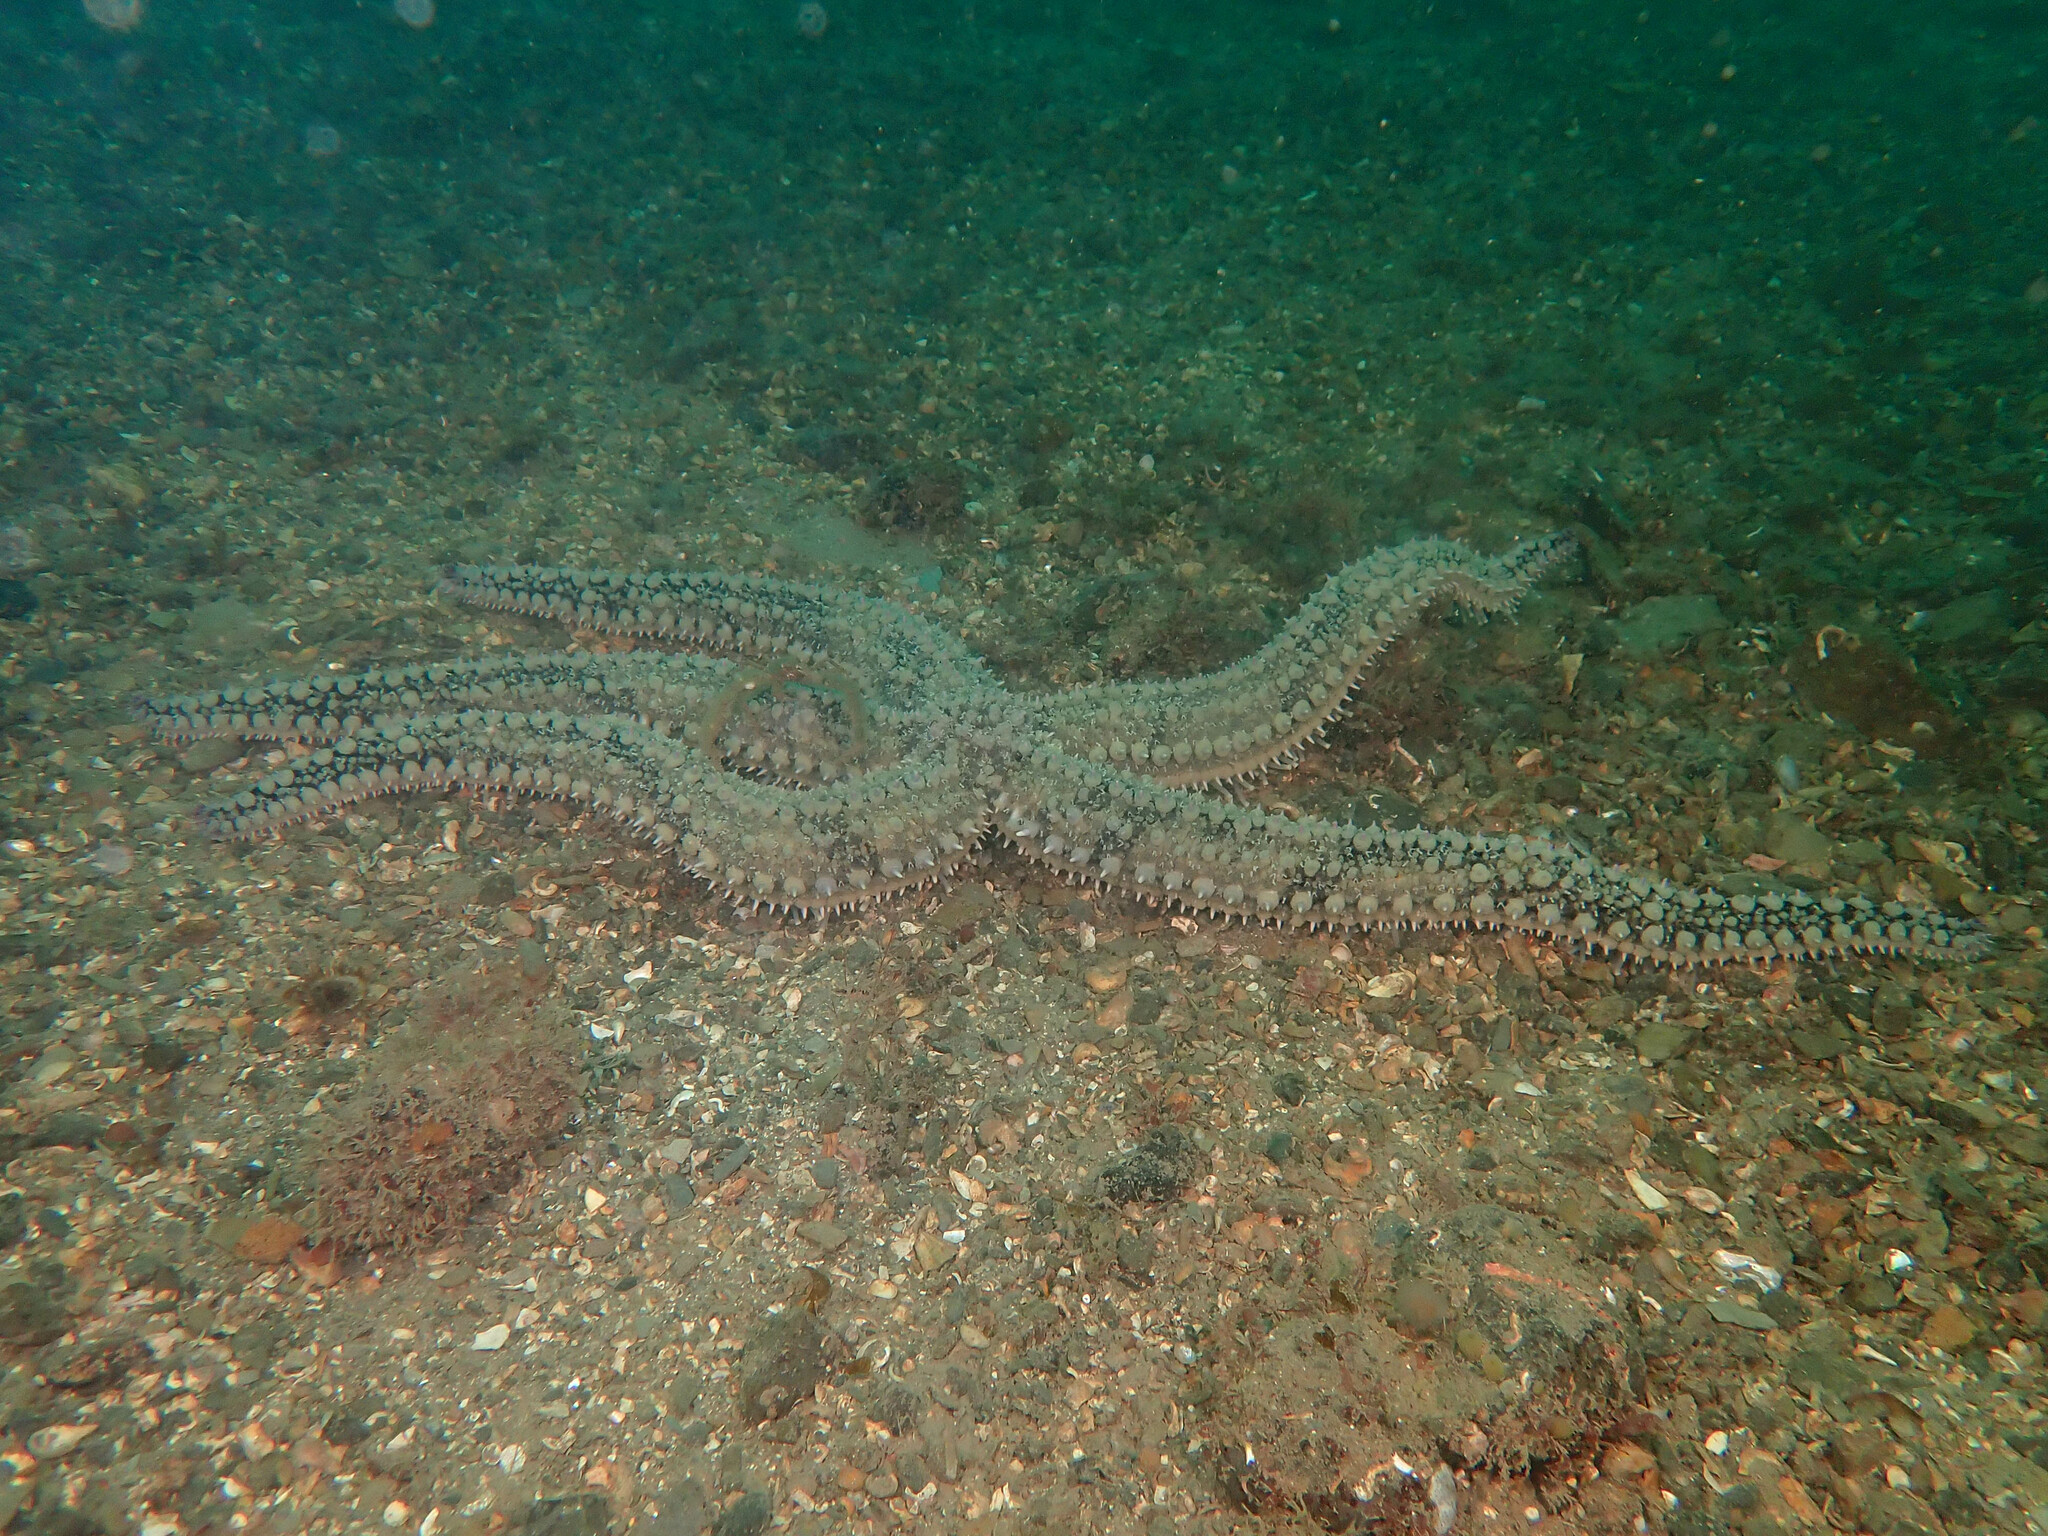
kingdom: Animalia
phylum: Echinodermata
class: Asteroidea
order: Forcipulatida
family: Asteriidae
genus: Marthasterias
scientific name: Marthasterias glacialis
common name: Spiny starfish
